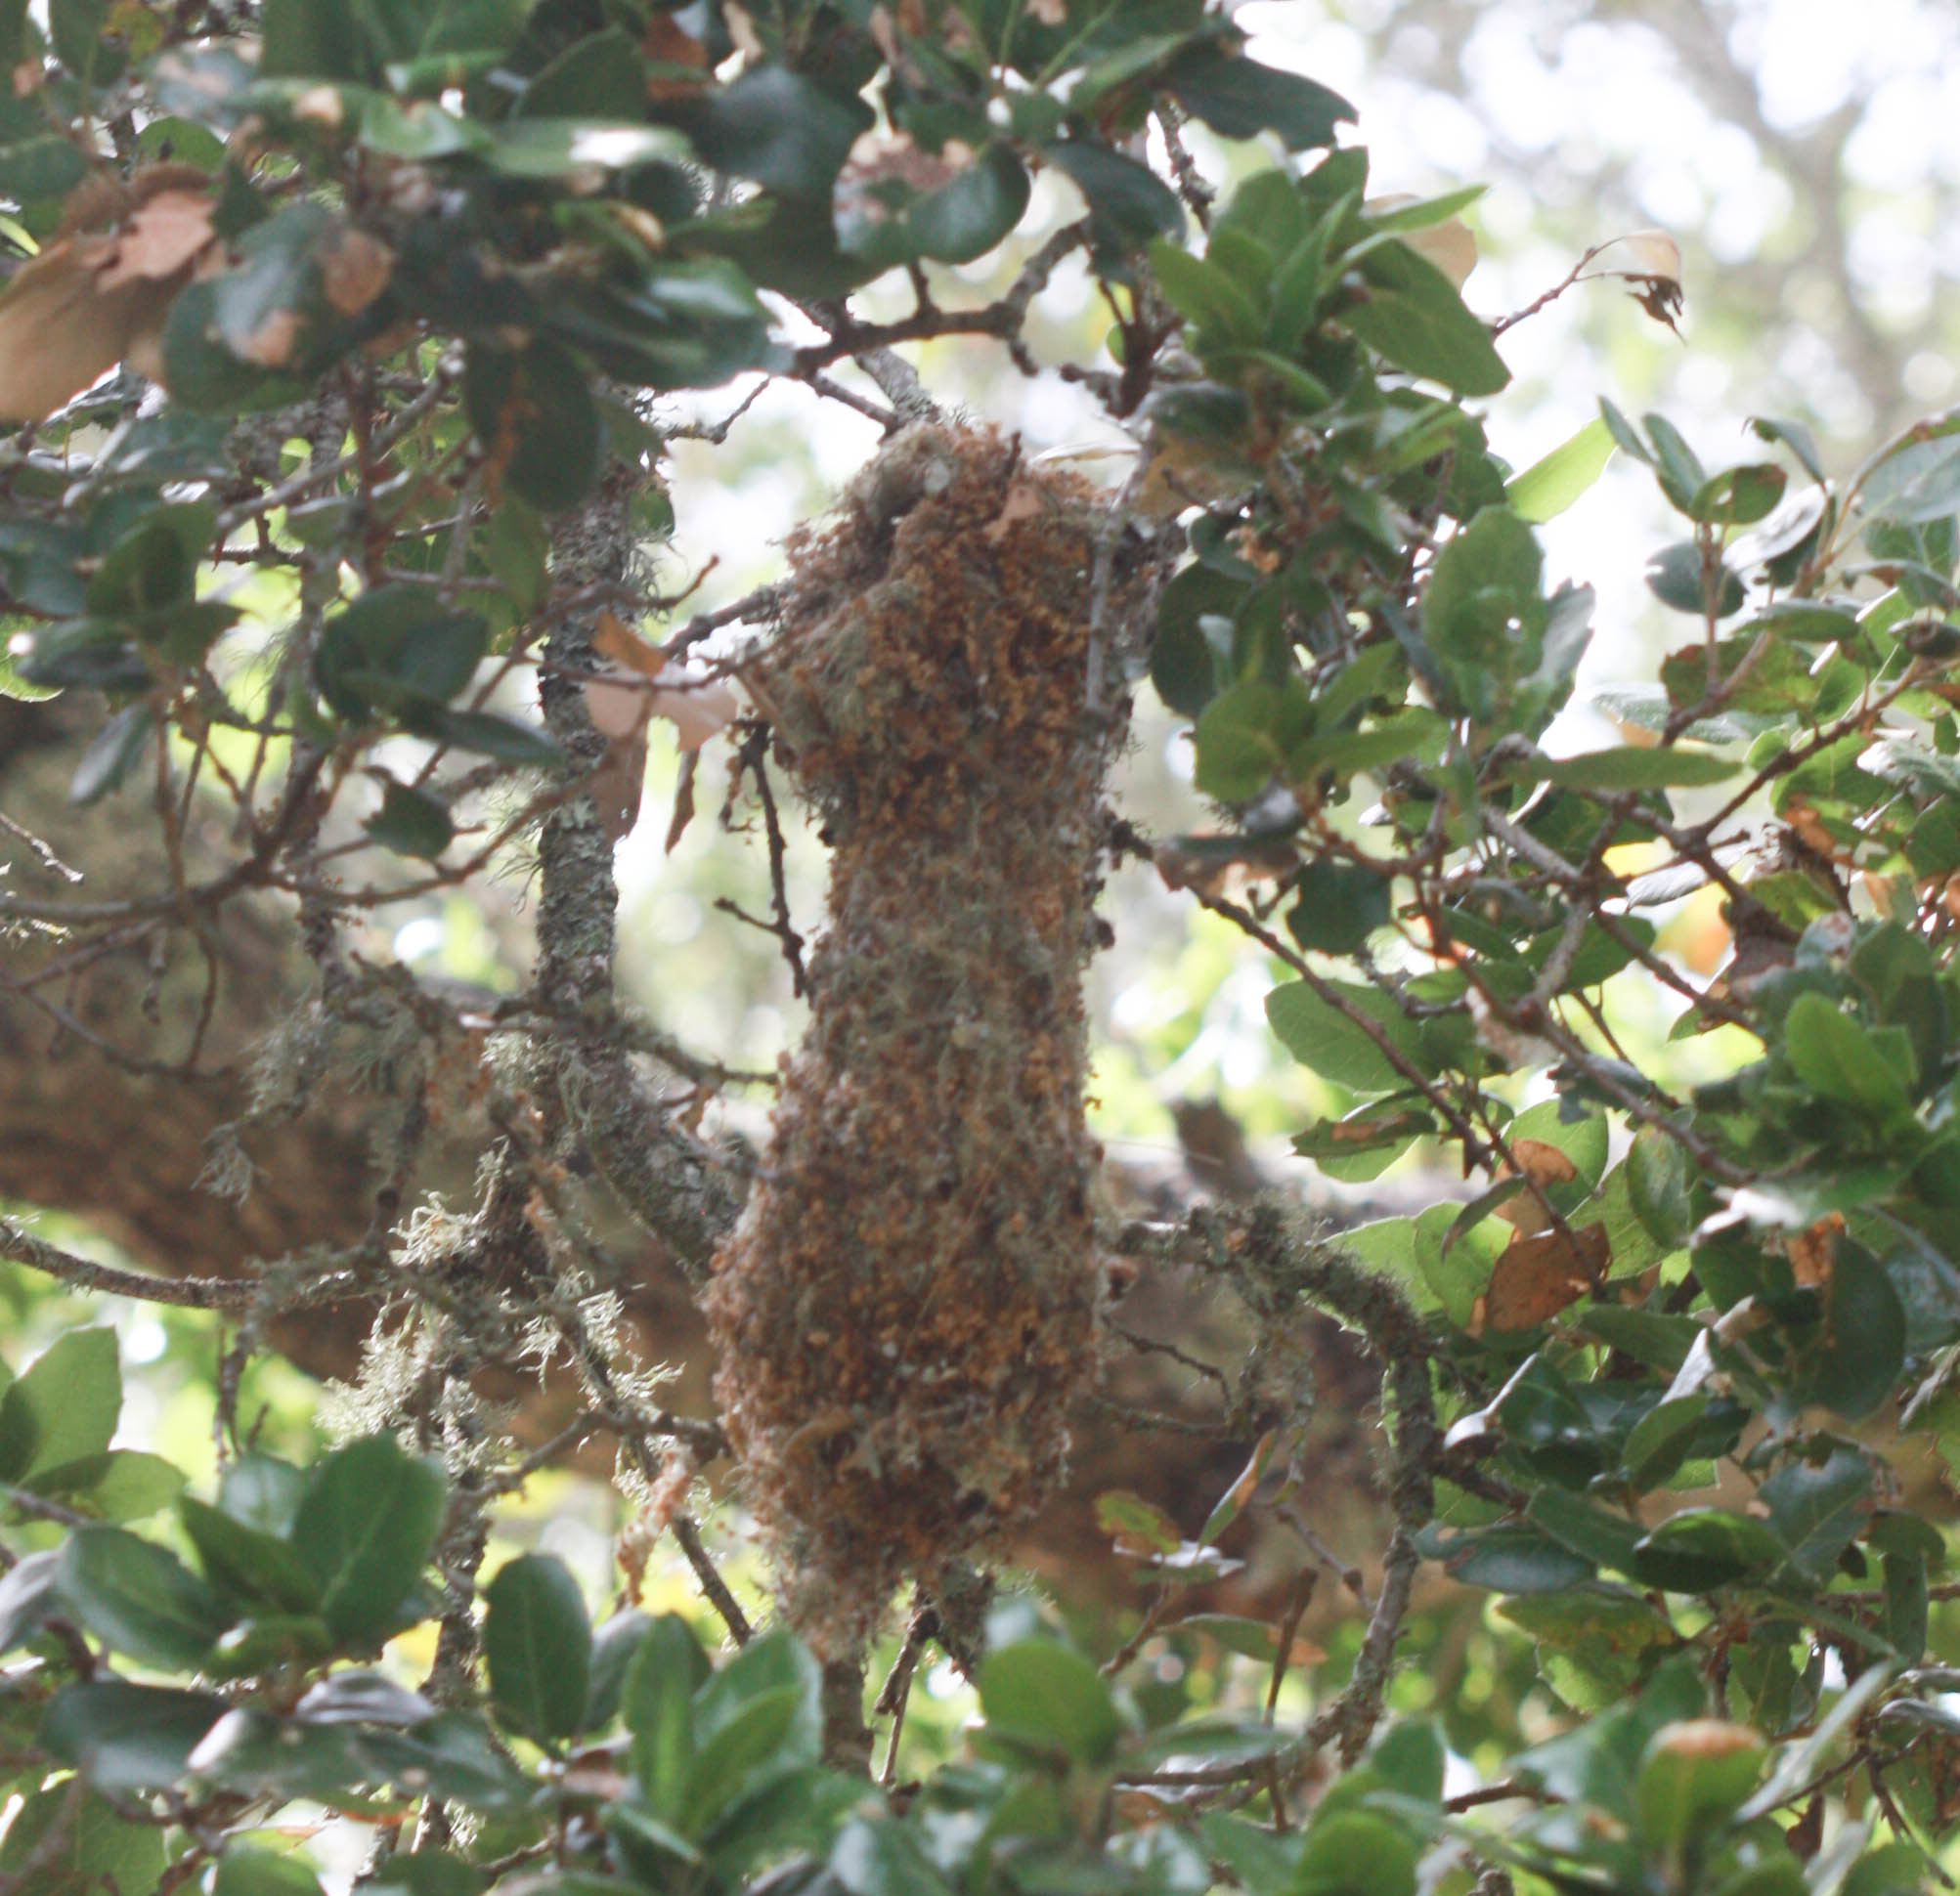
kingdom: Animalia
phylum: Chordata
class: Aves
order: Passeriformes
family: Aegithalidae
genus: Psaltriparus
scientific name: Psaltriparus minimus
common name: American bushtit
